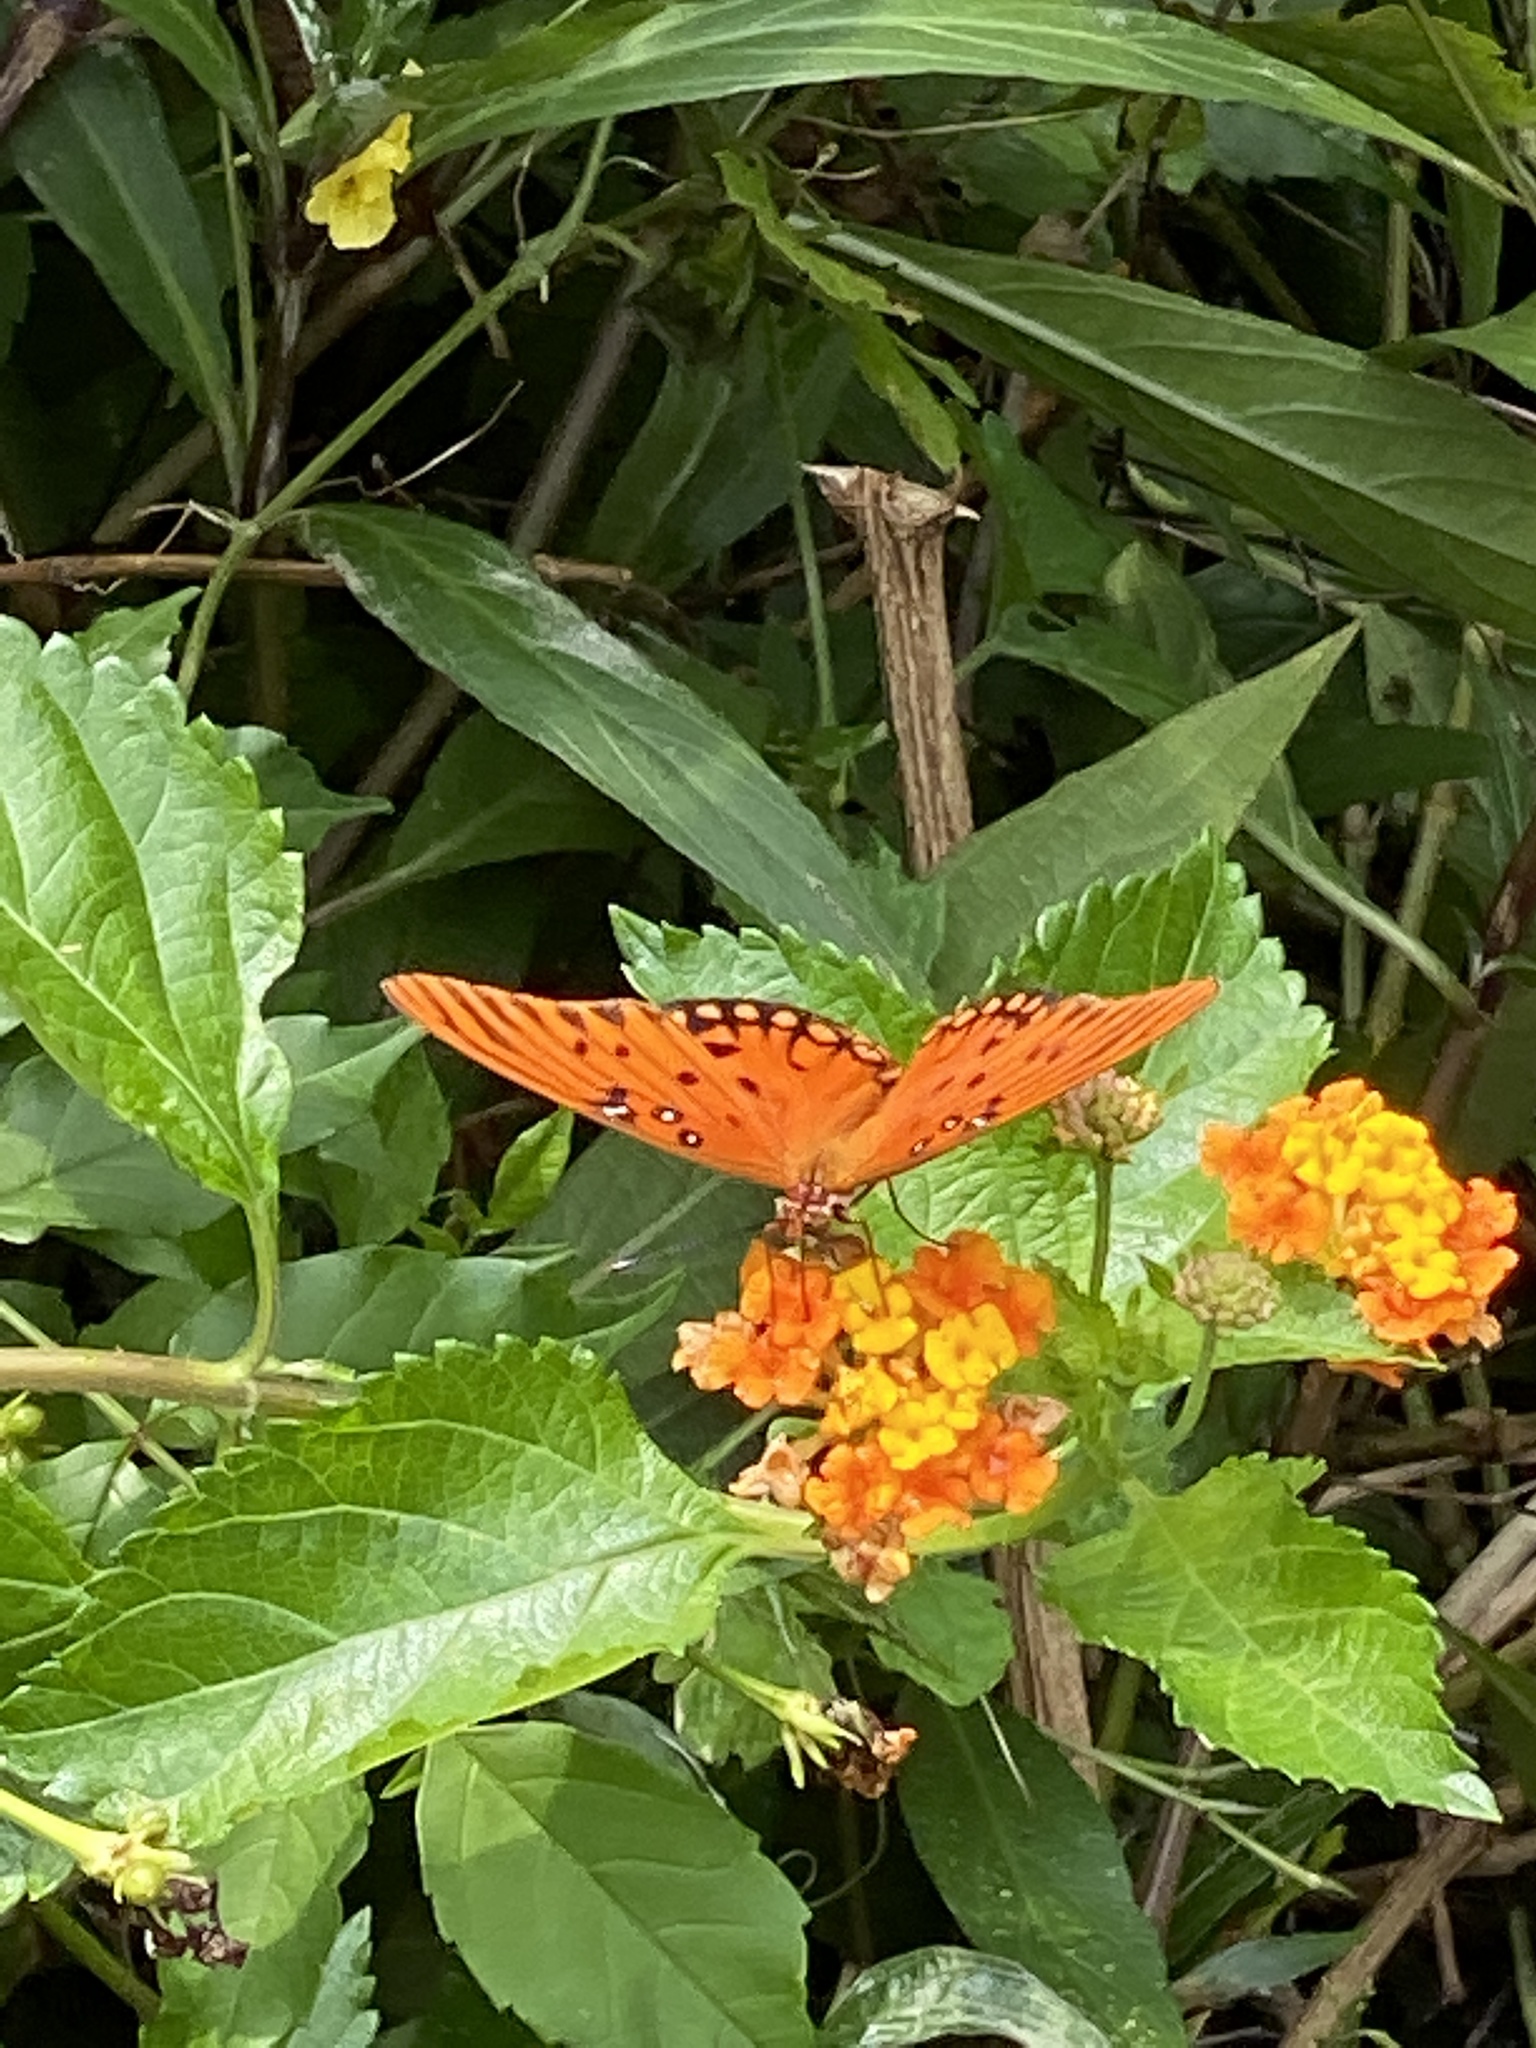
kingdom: Animalia
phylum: Arthropoda
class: Insecta
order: Lepidoptera
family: Nymphalidae
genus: Dione
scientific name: Dione vanillae
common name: Gulf fritillary
